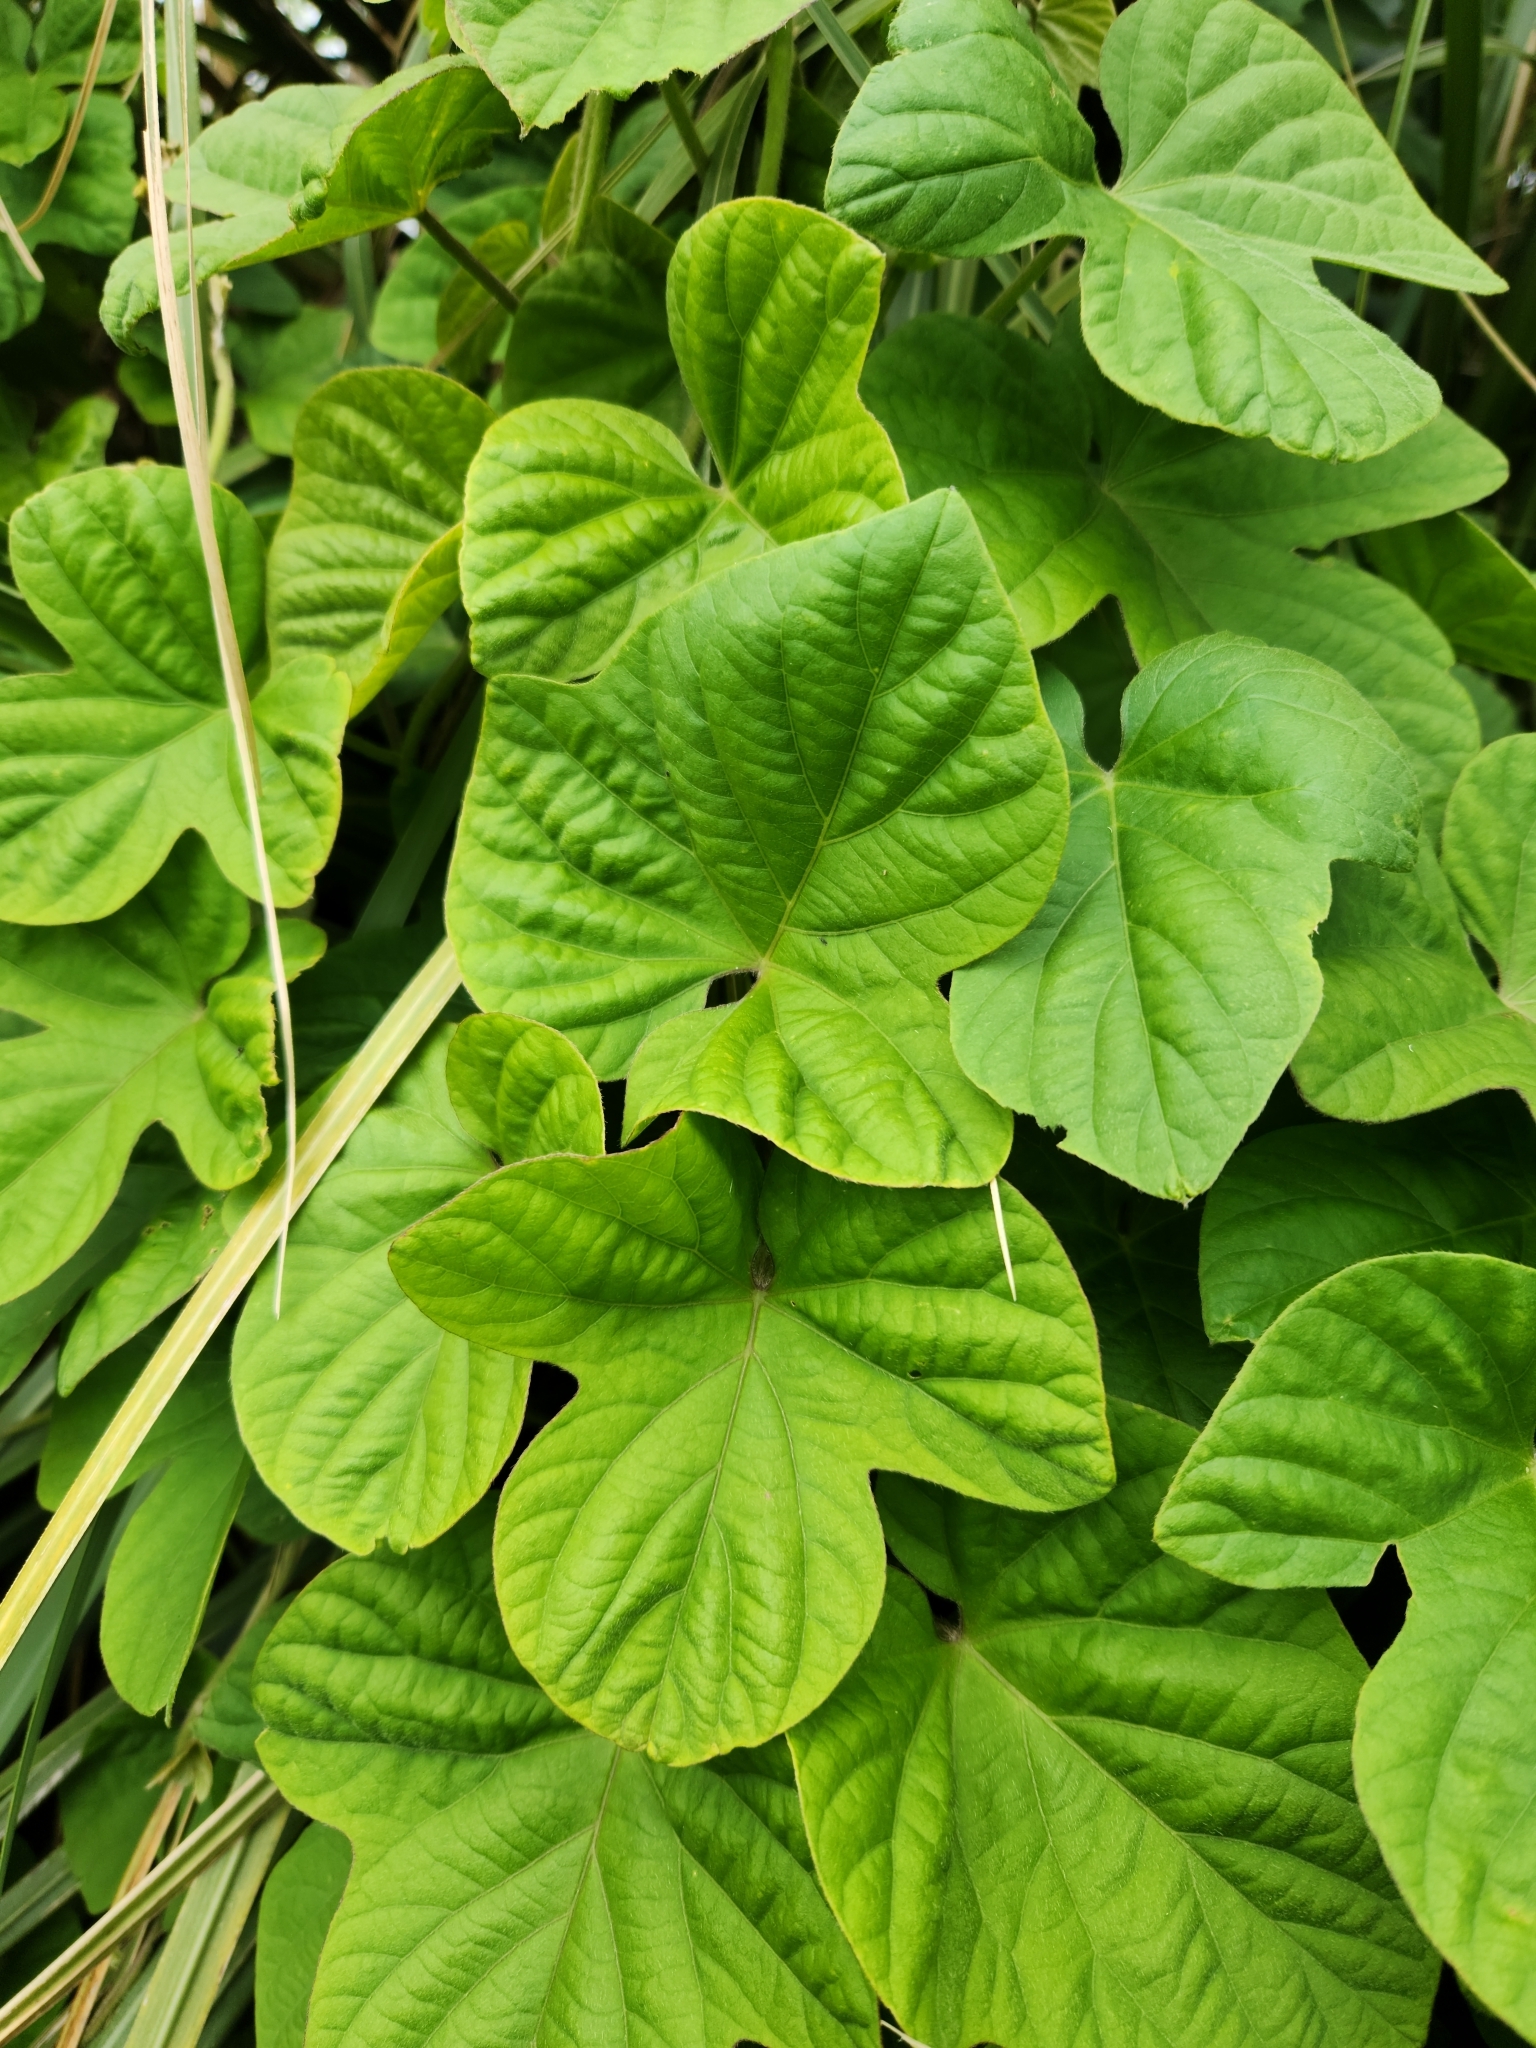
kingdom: Plantae
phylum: Tracheophyta
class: Magnoliopsida
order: Solanales
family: Convolvulaceae
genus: Ipomoea
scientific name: Ipomoea ficifolia
